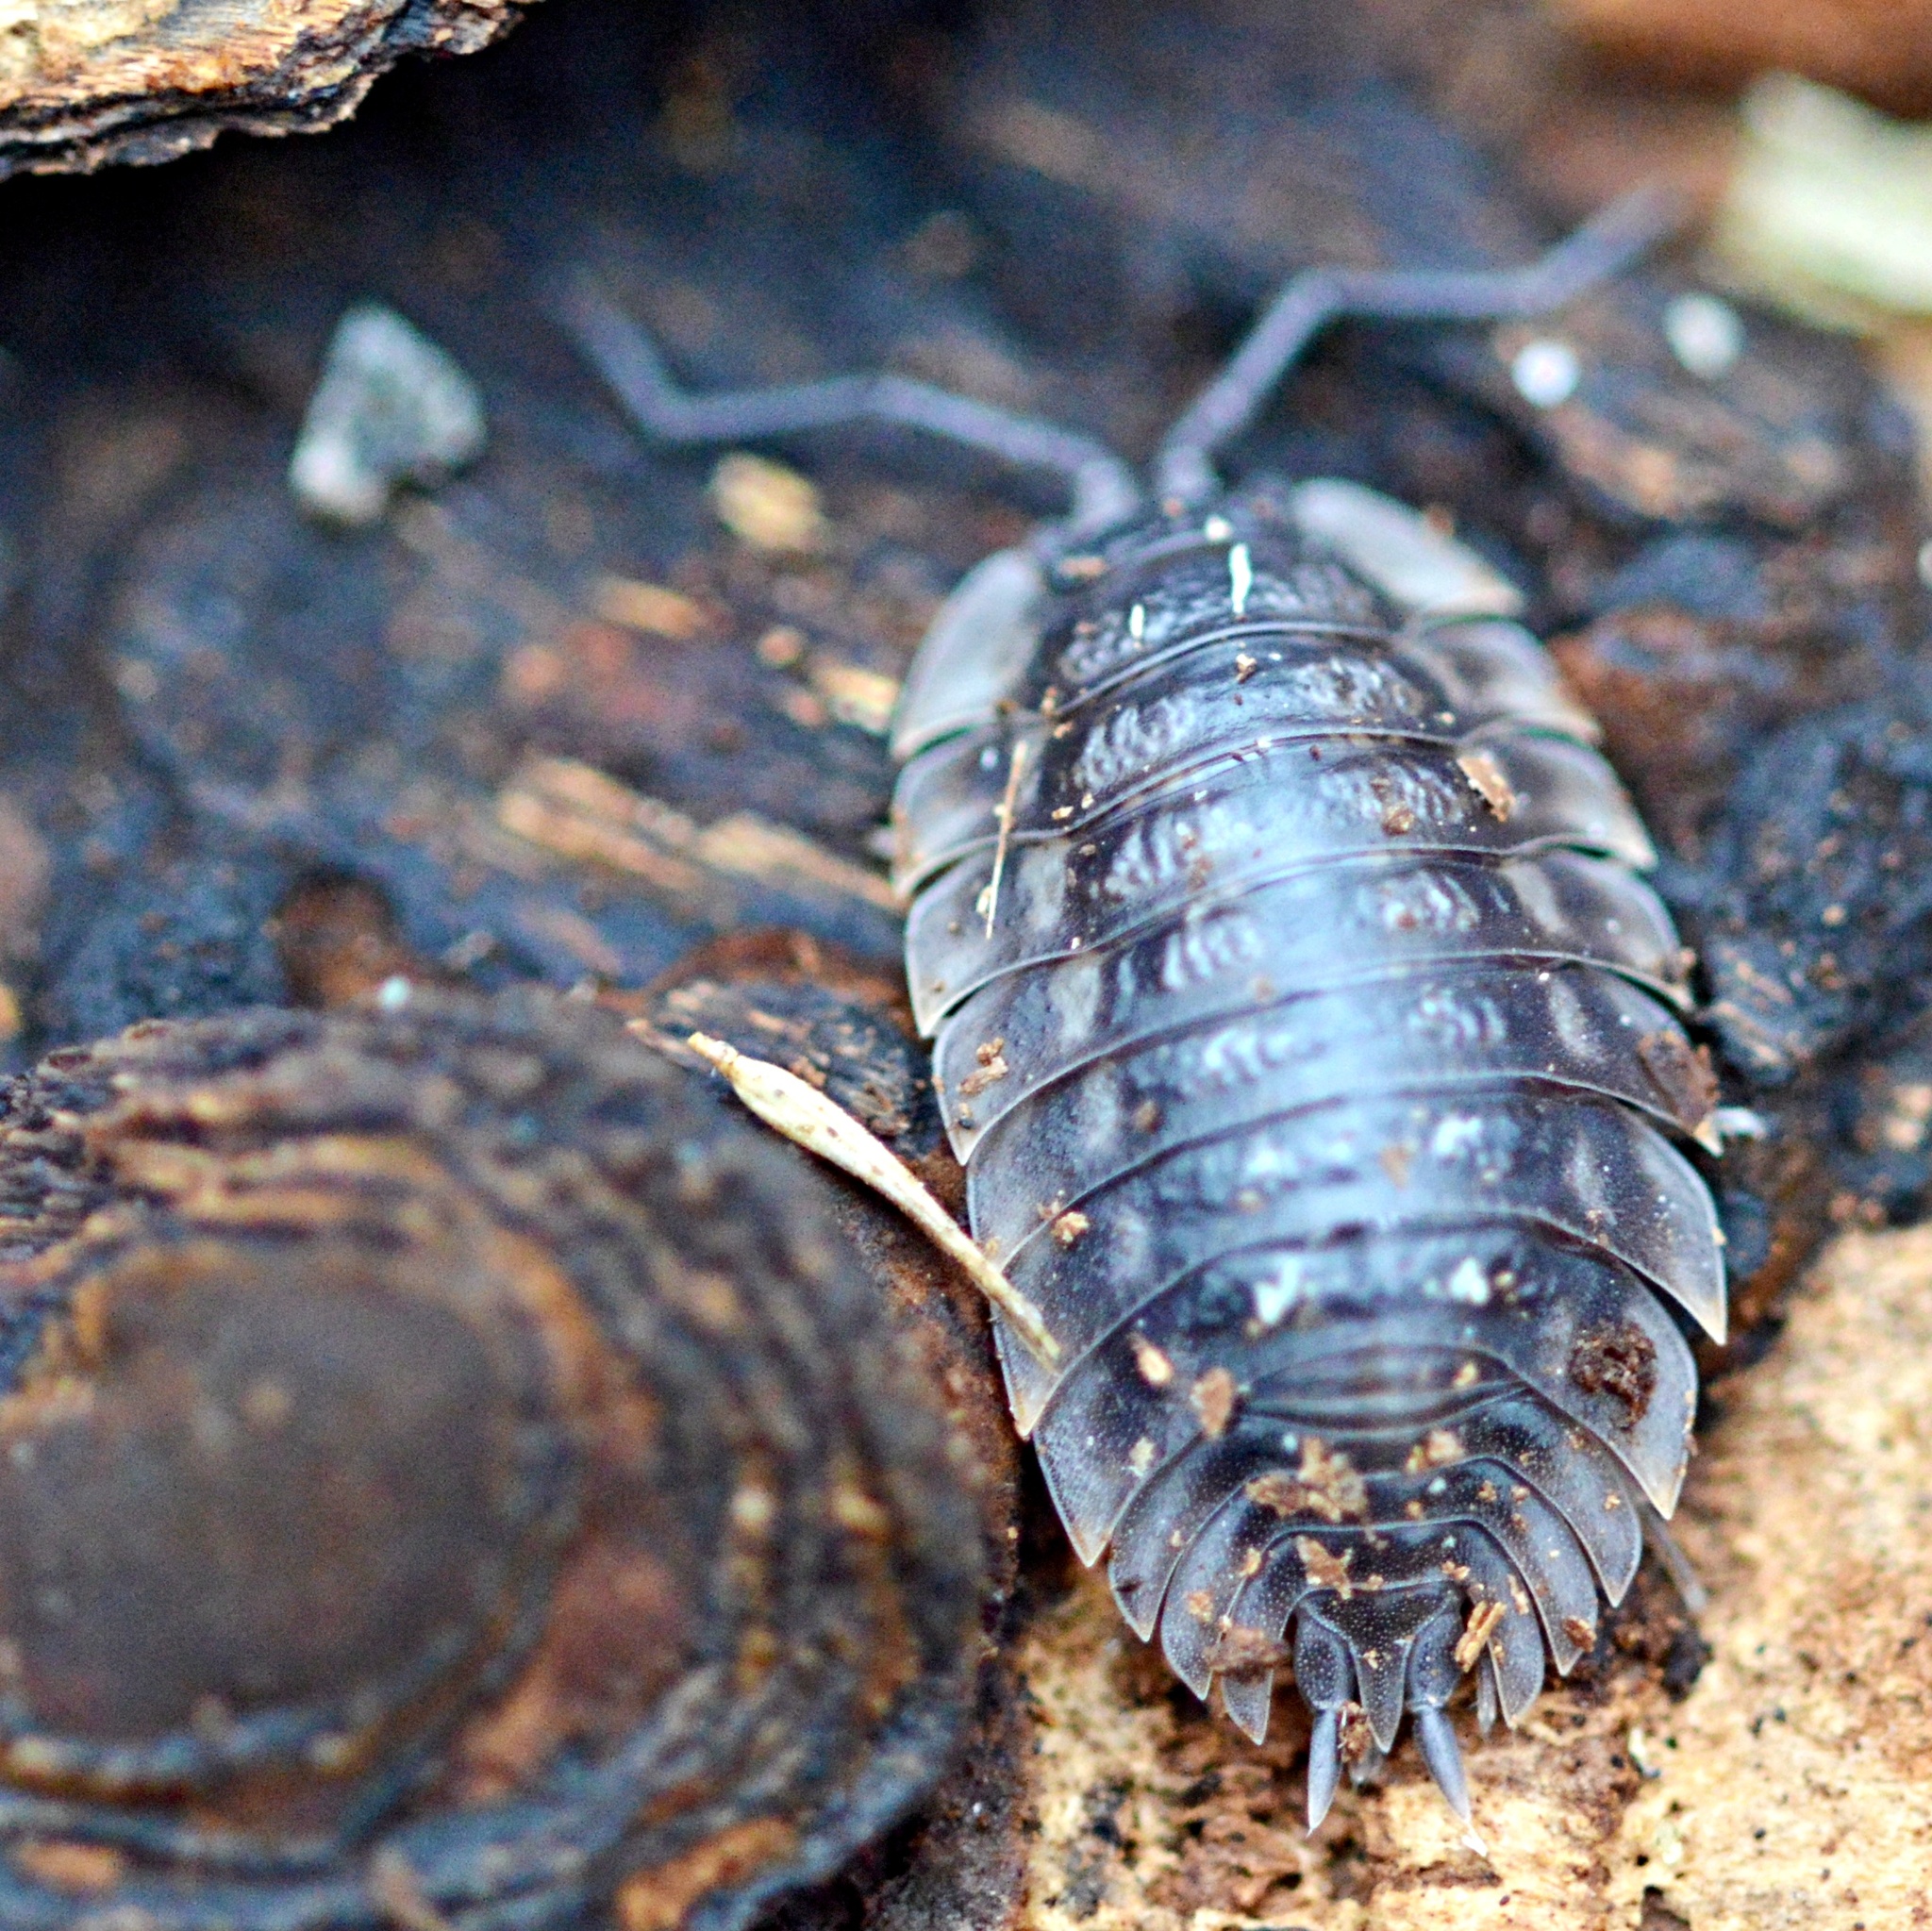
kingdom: Animalia
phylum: Arthropoda
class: Malacostraca
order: Isopoda
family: Oniscidae
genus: Oniscus
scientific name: Oniscus asellus
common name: Common shiny woodlouse
